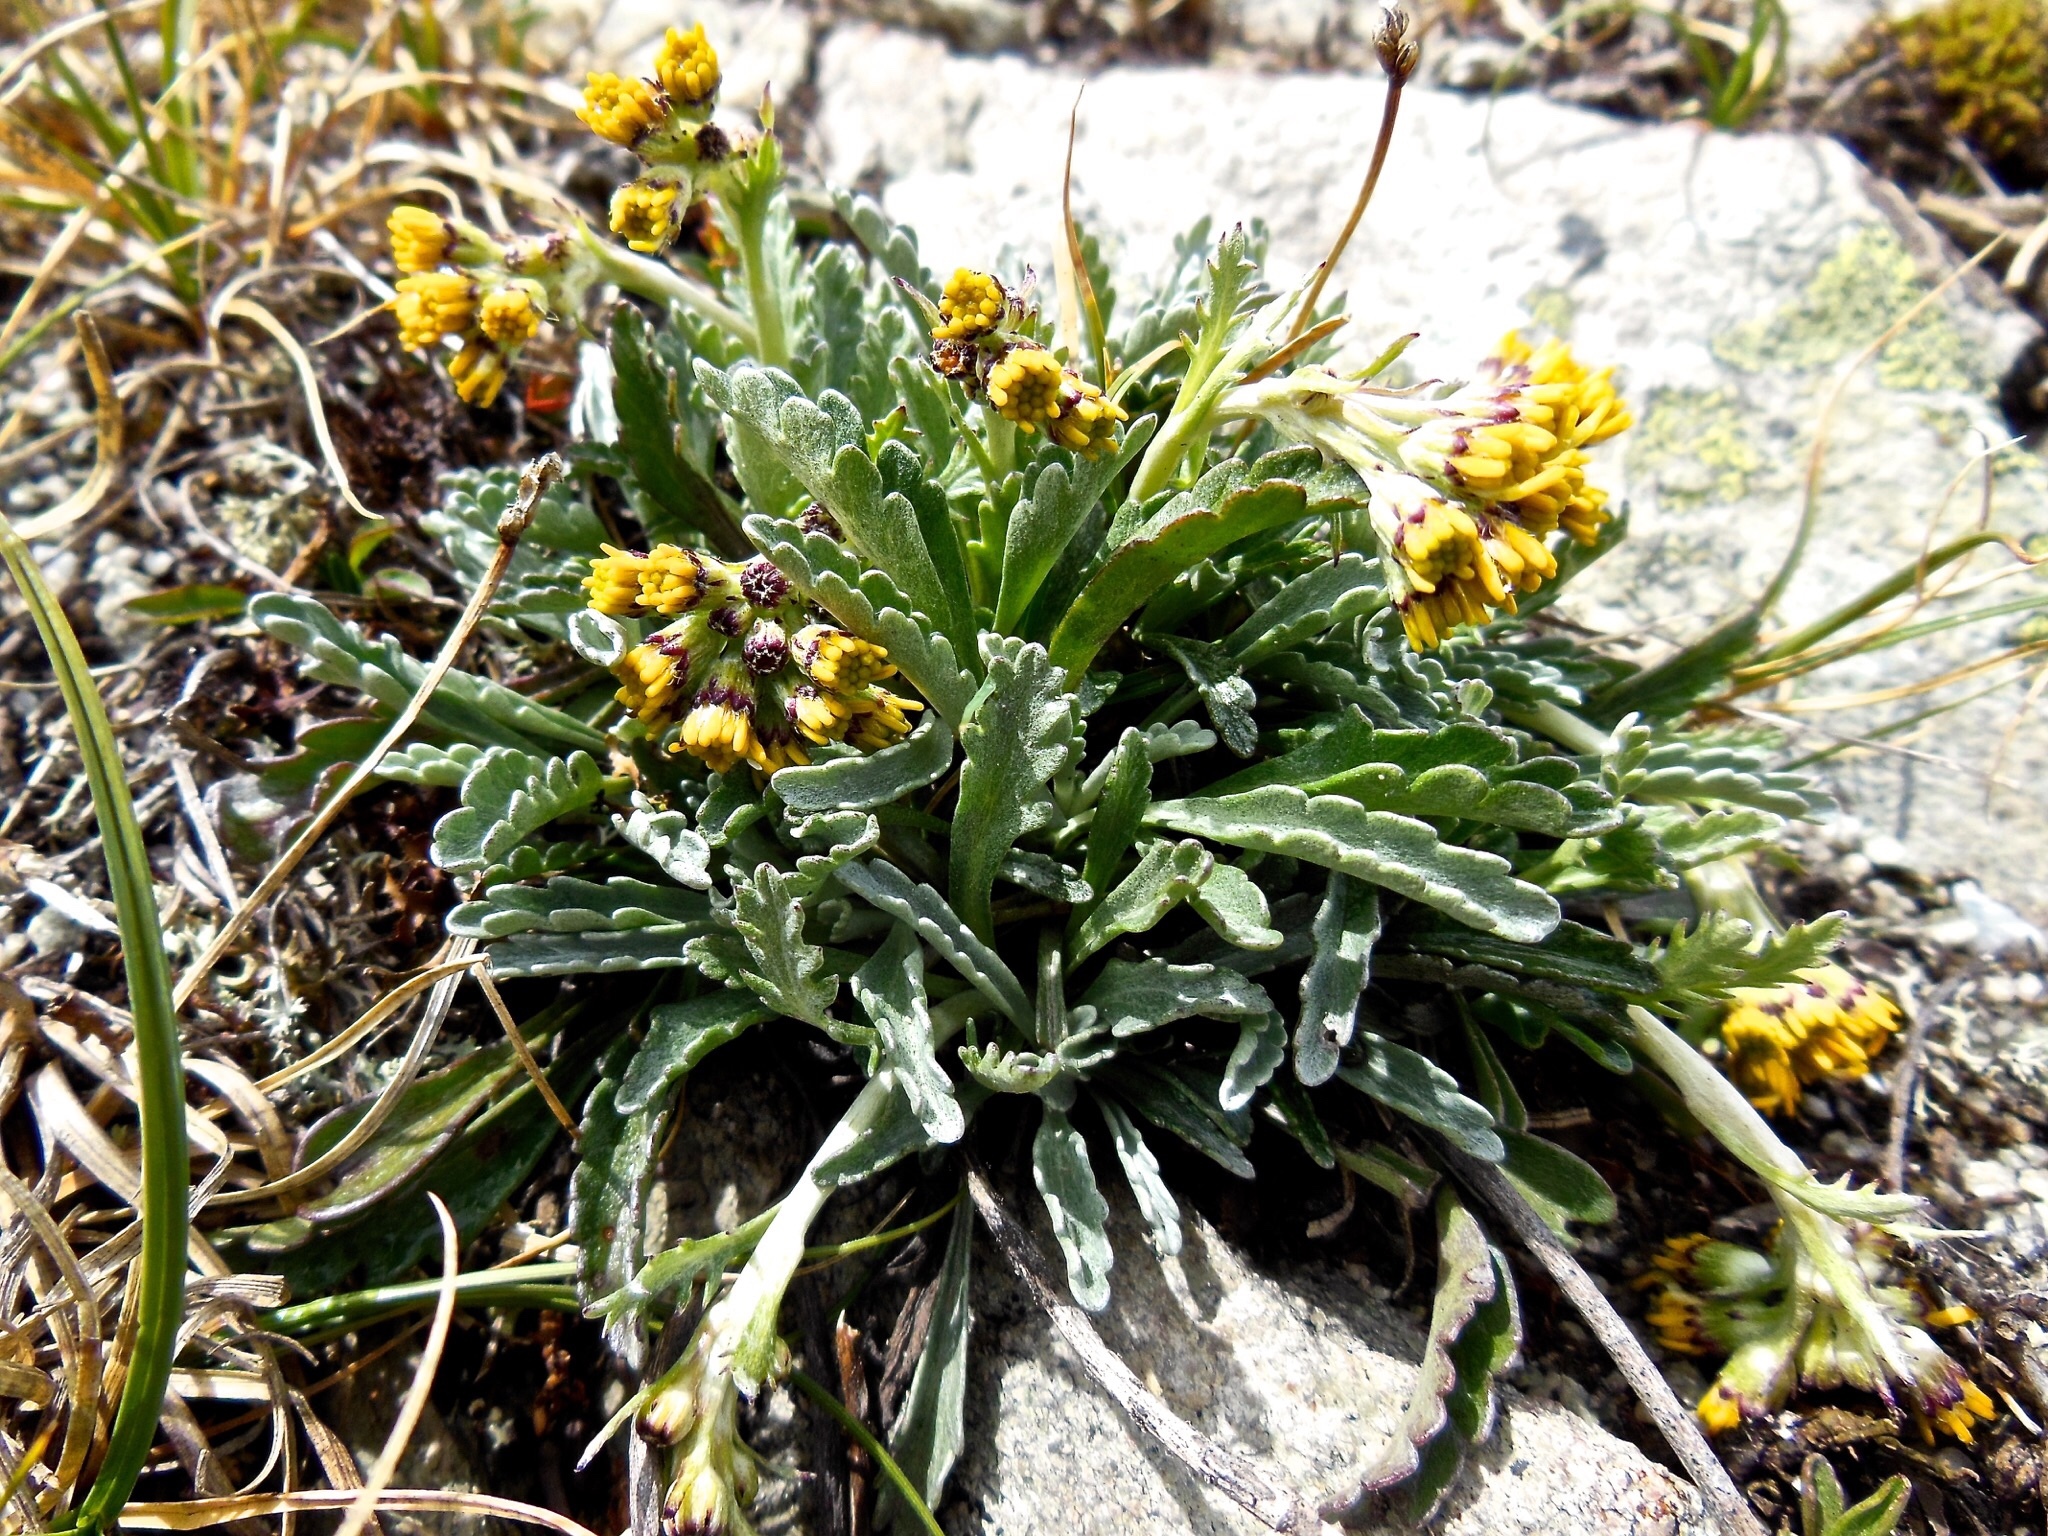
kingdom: Plantae
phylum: Tracheophyta
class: Magnoliopsida
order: Asterales
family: Asteraceae
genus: Jacobaea
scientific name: Jacobaea carniolica
